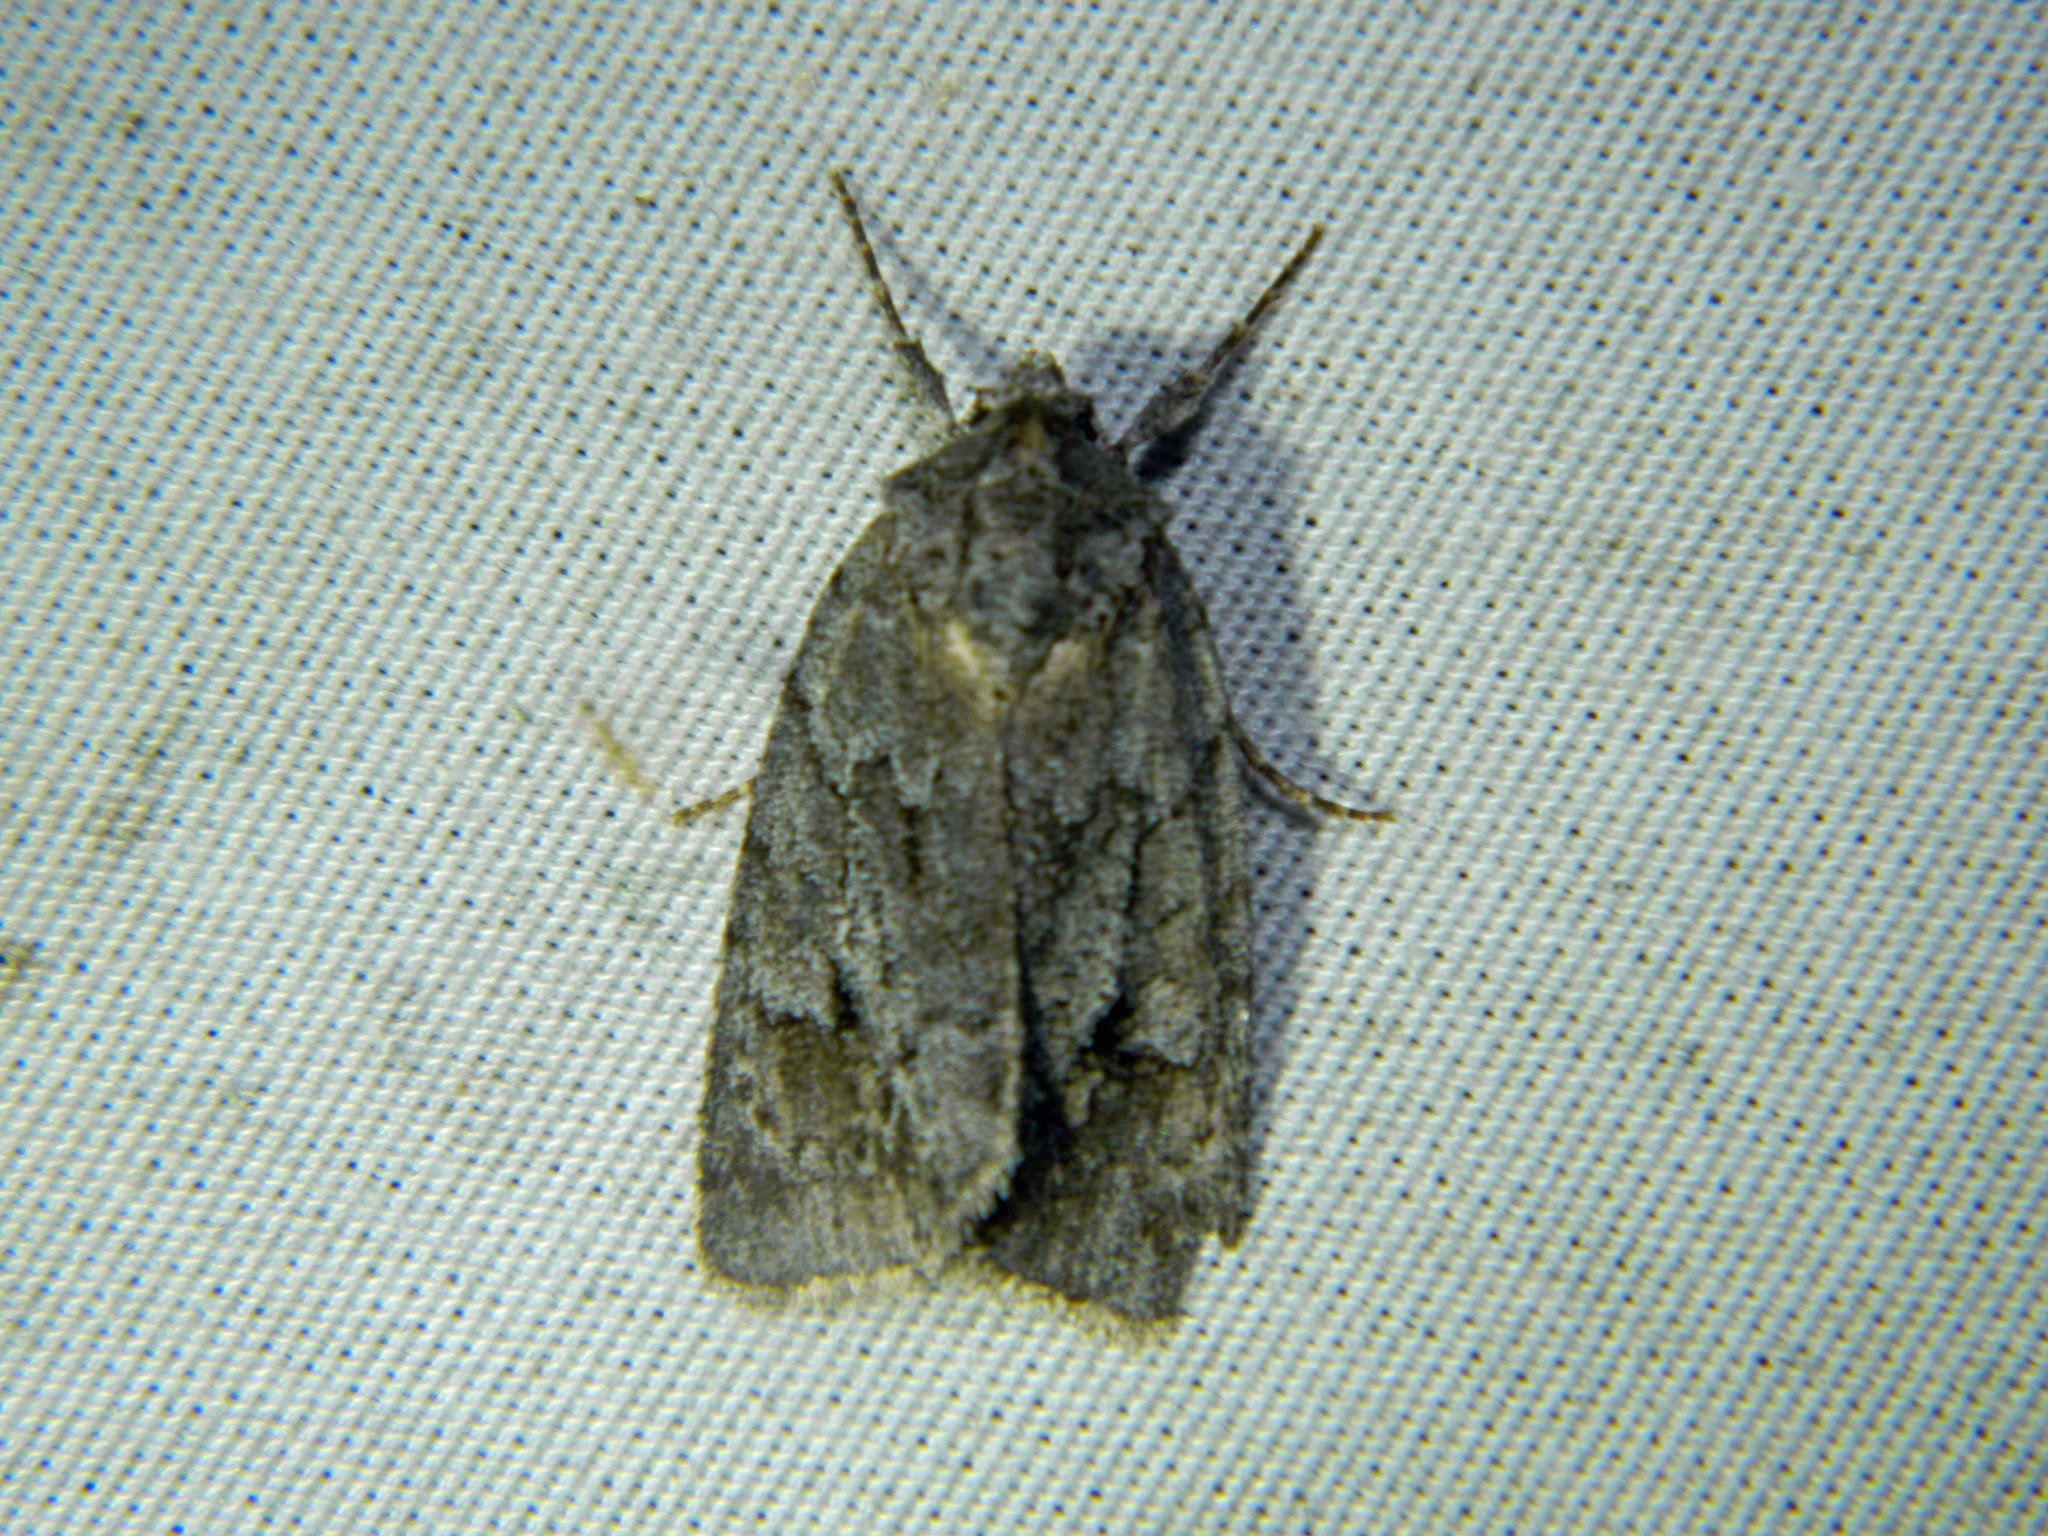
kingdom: Animalia
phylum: Arthropoda
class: Insecta
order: Lepidoptera
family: Noctuidae
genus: Sympistis
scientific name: Sympistis dentata
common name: Blueberry sallow
